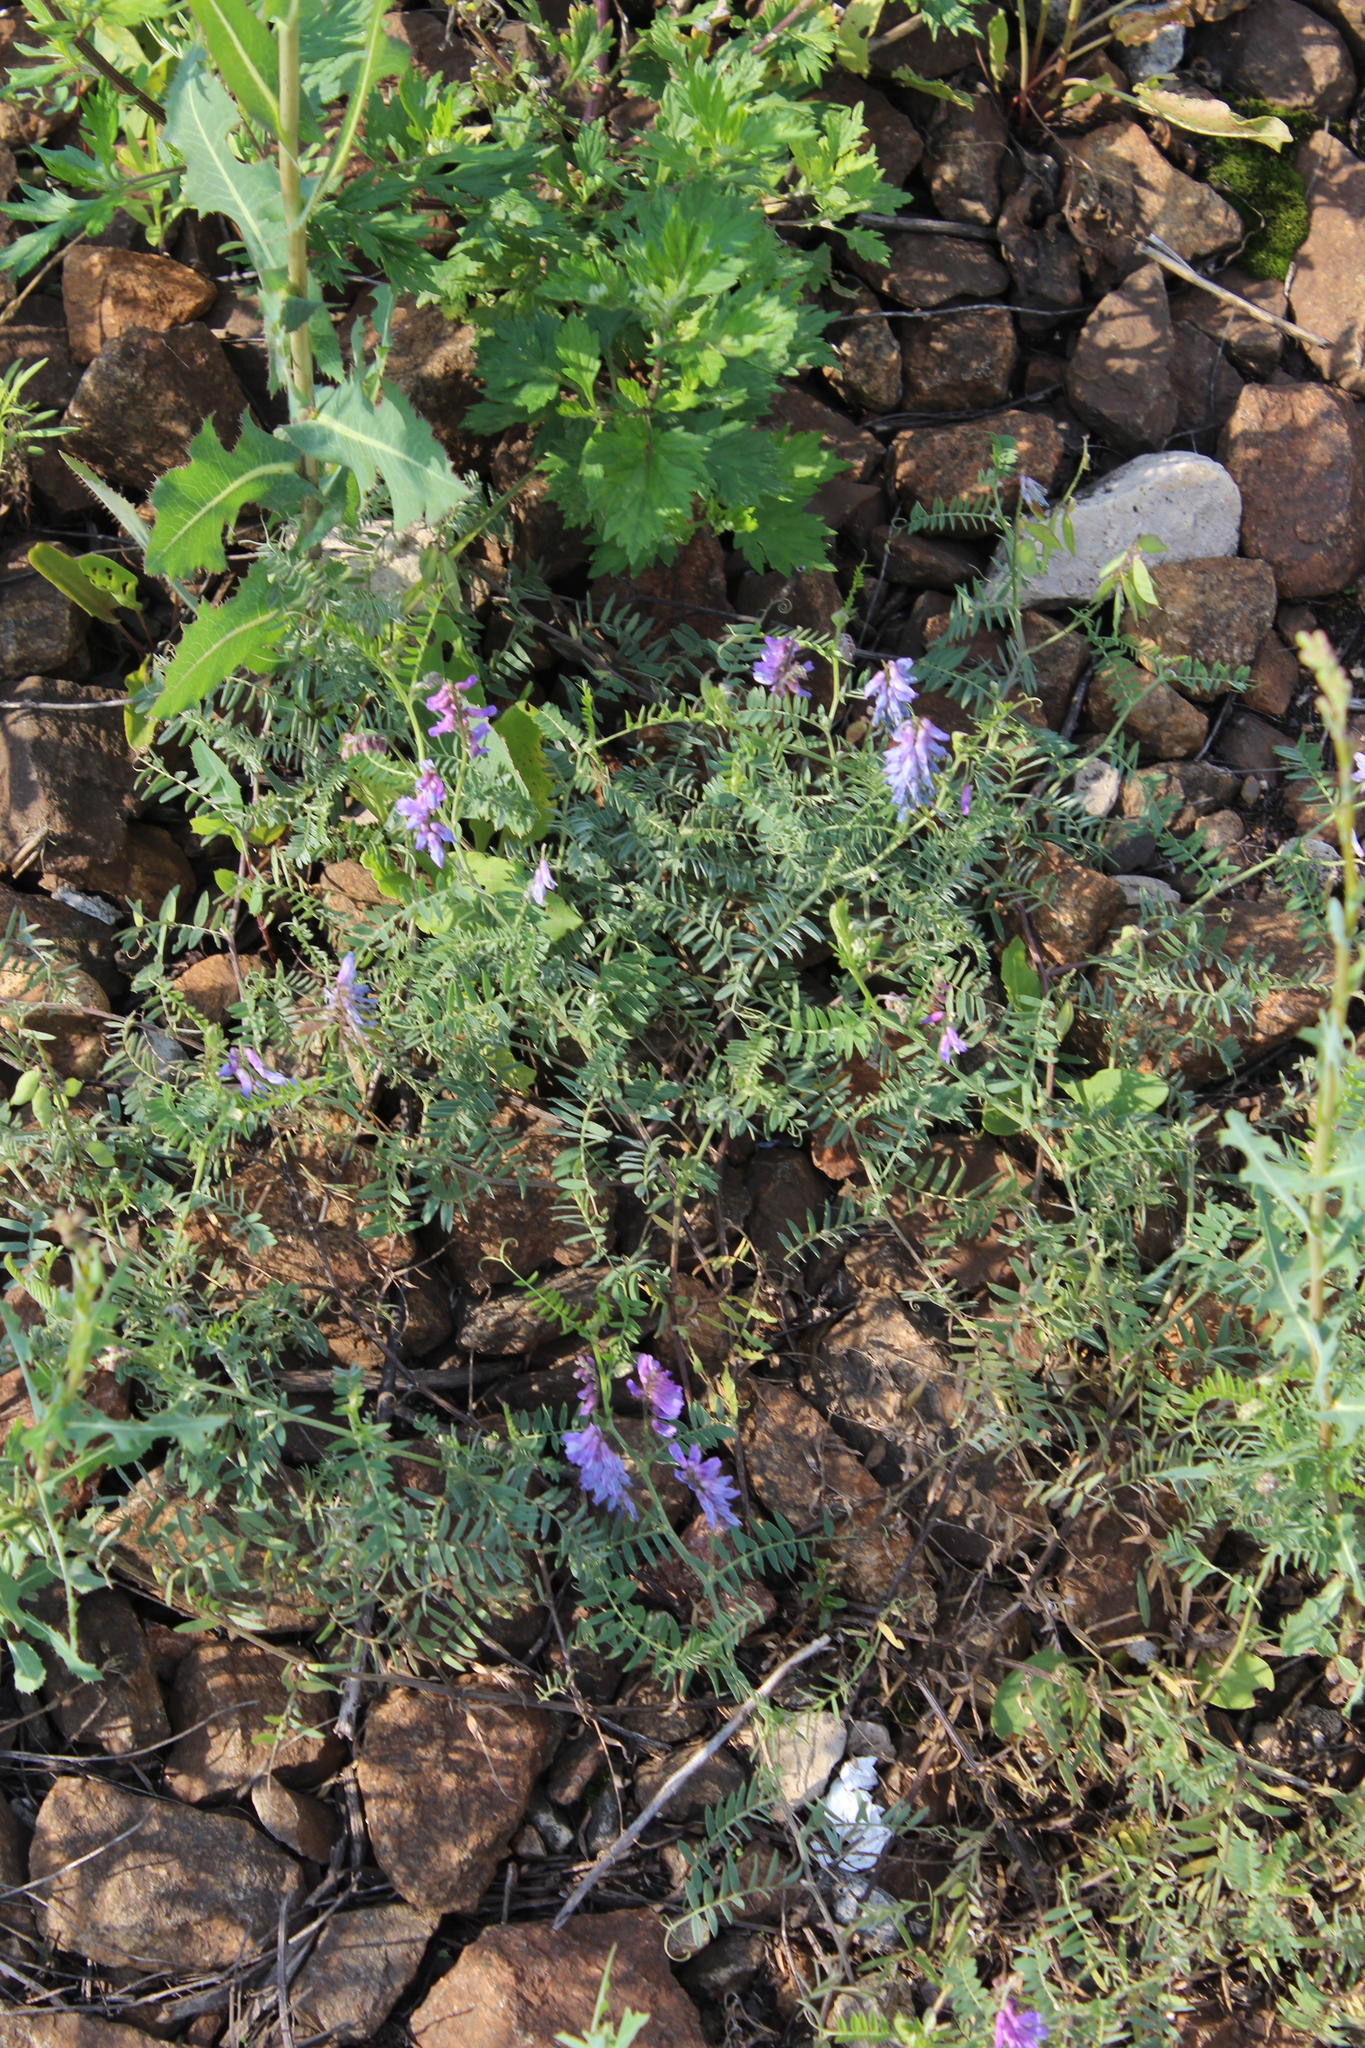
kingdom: Plantae
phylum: Tracheophyta
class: Magnoliopsida
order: Fabales
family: Fabaceae
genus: Vicia
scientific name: Vicia cracca
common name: Bird vetch
